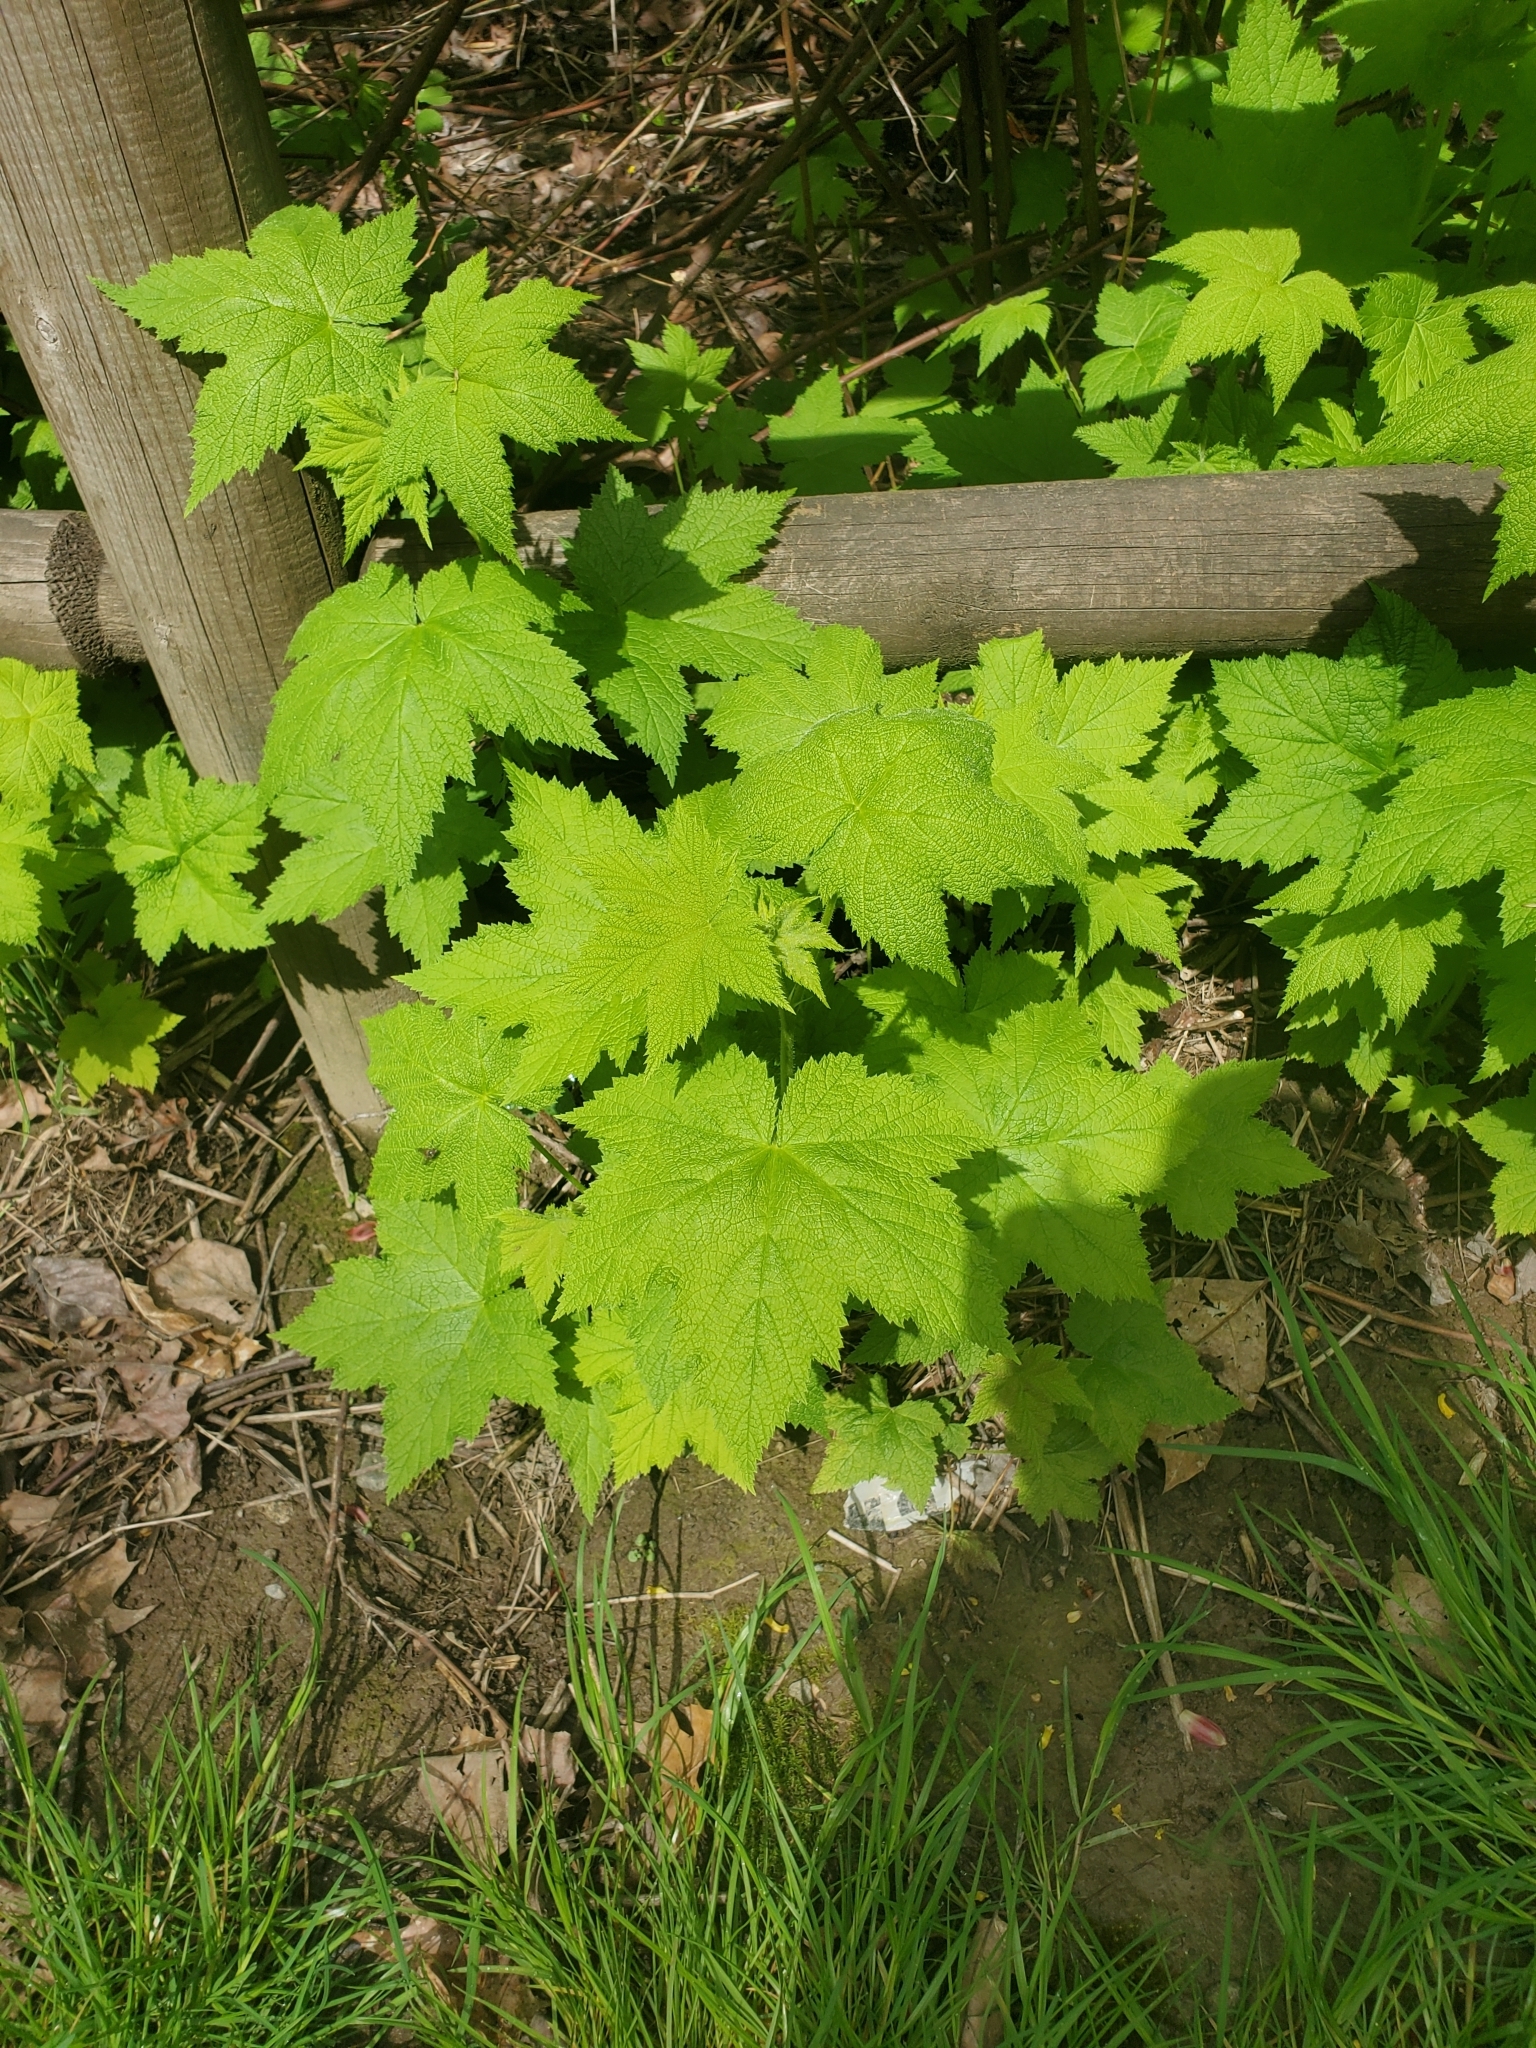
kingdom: Plantae
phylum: Tracheophyta
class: Magnoliopsida
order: Rosales
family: Rosaceae
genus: Rubus
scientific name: Rubus parviflorus
